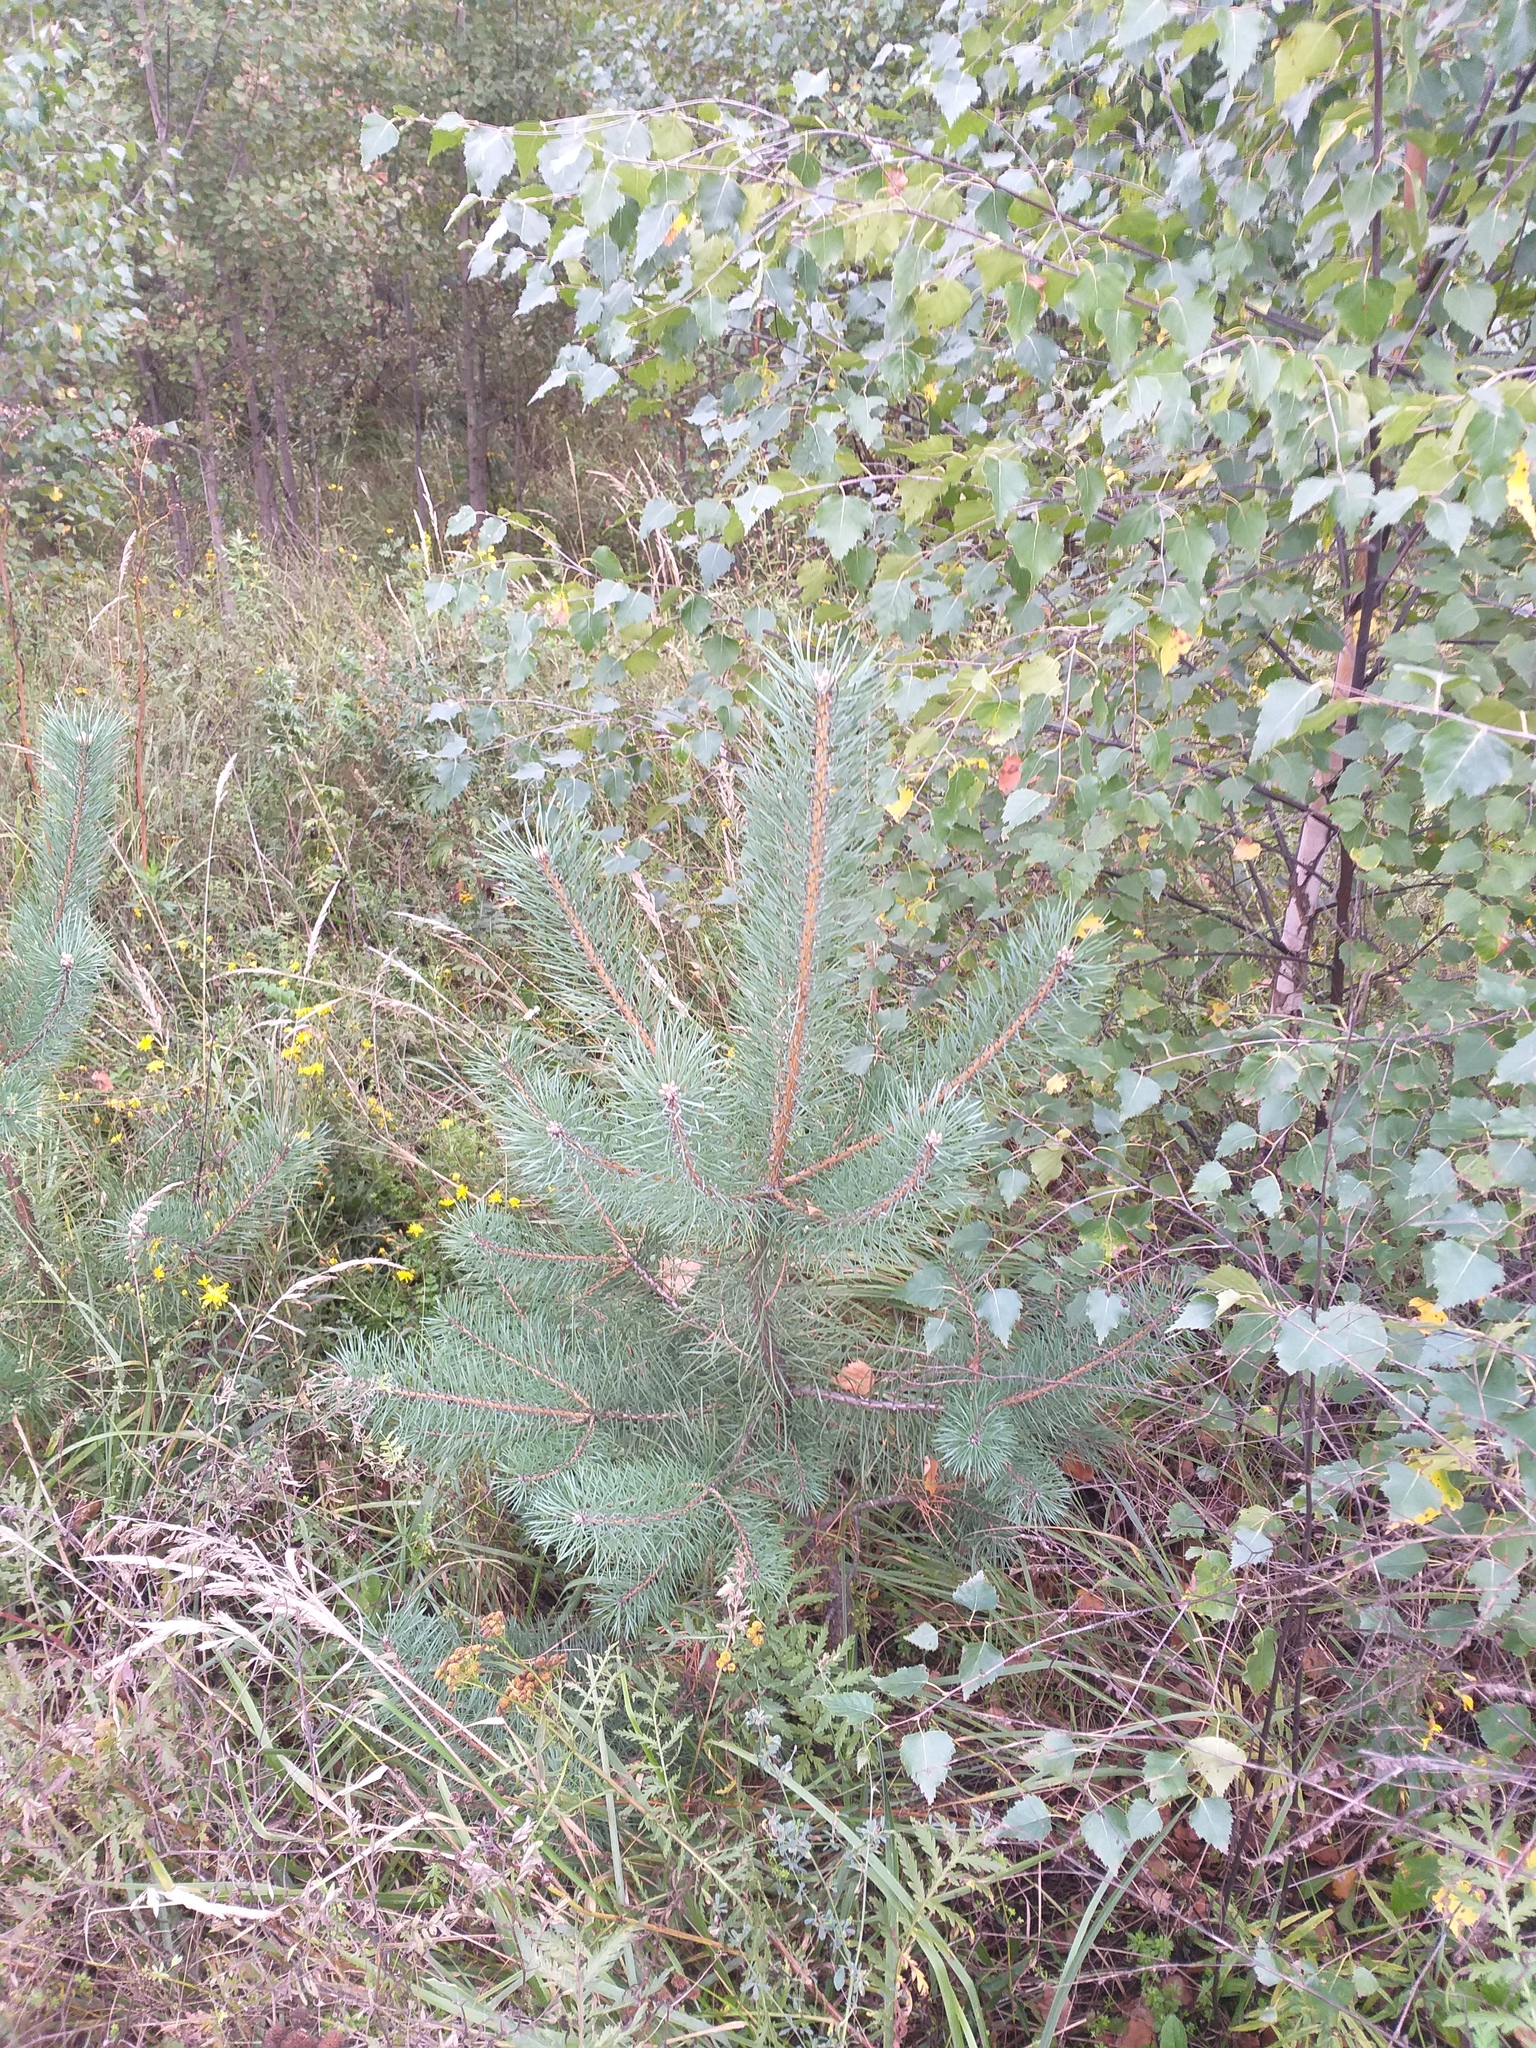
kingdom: Plantae
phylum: Tracheophyta
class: Pinopsida
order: Pinales
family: Pinaceae
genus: Pinus
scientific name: Pinus sylvestris
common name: Scots pine
